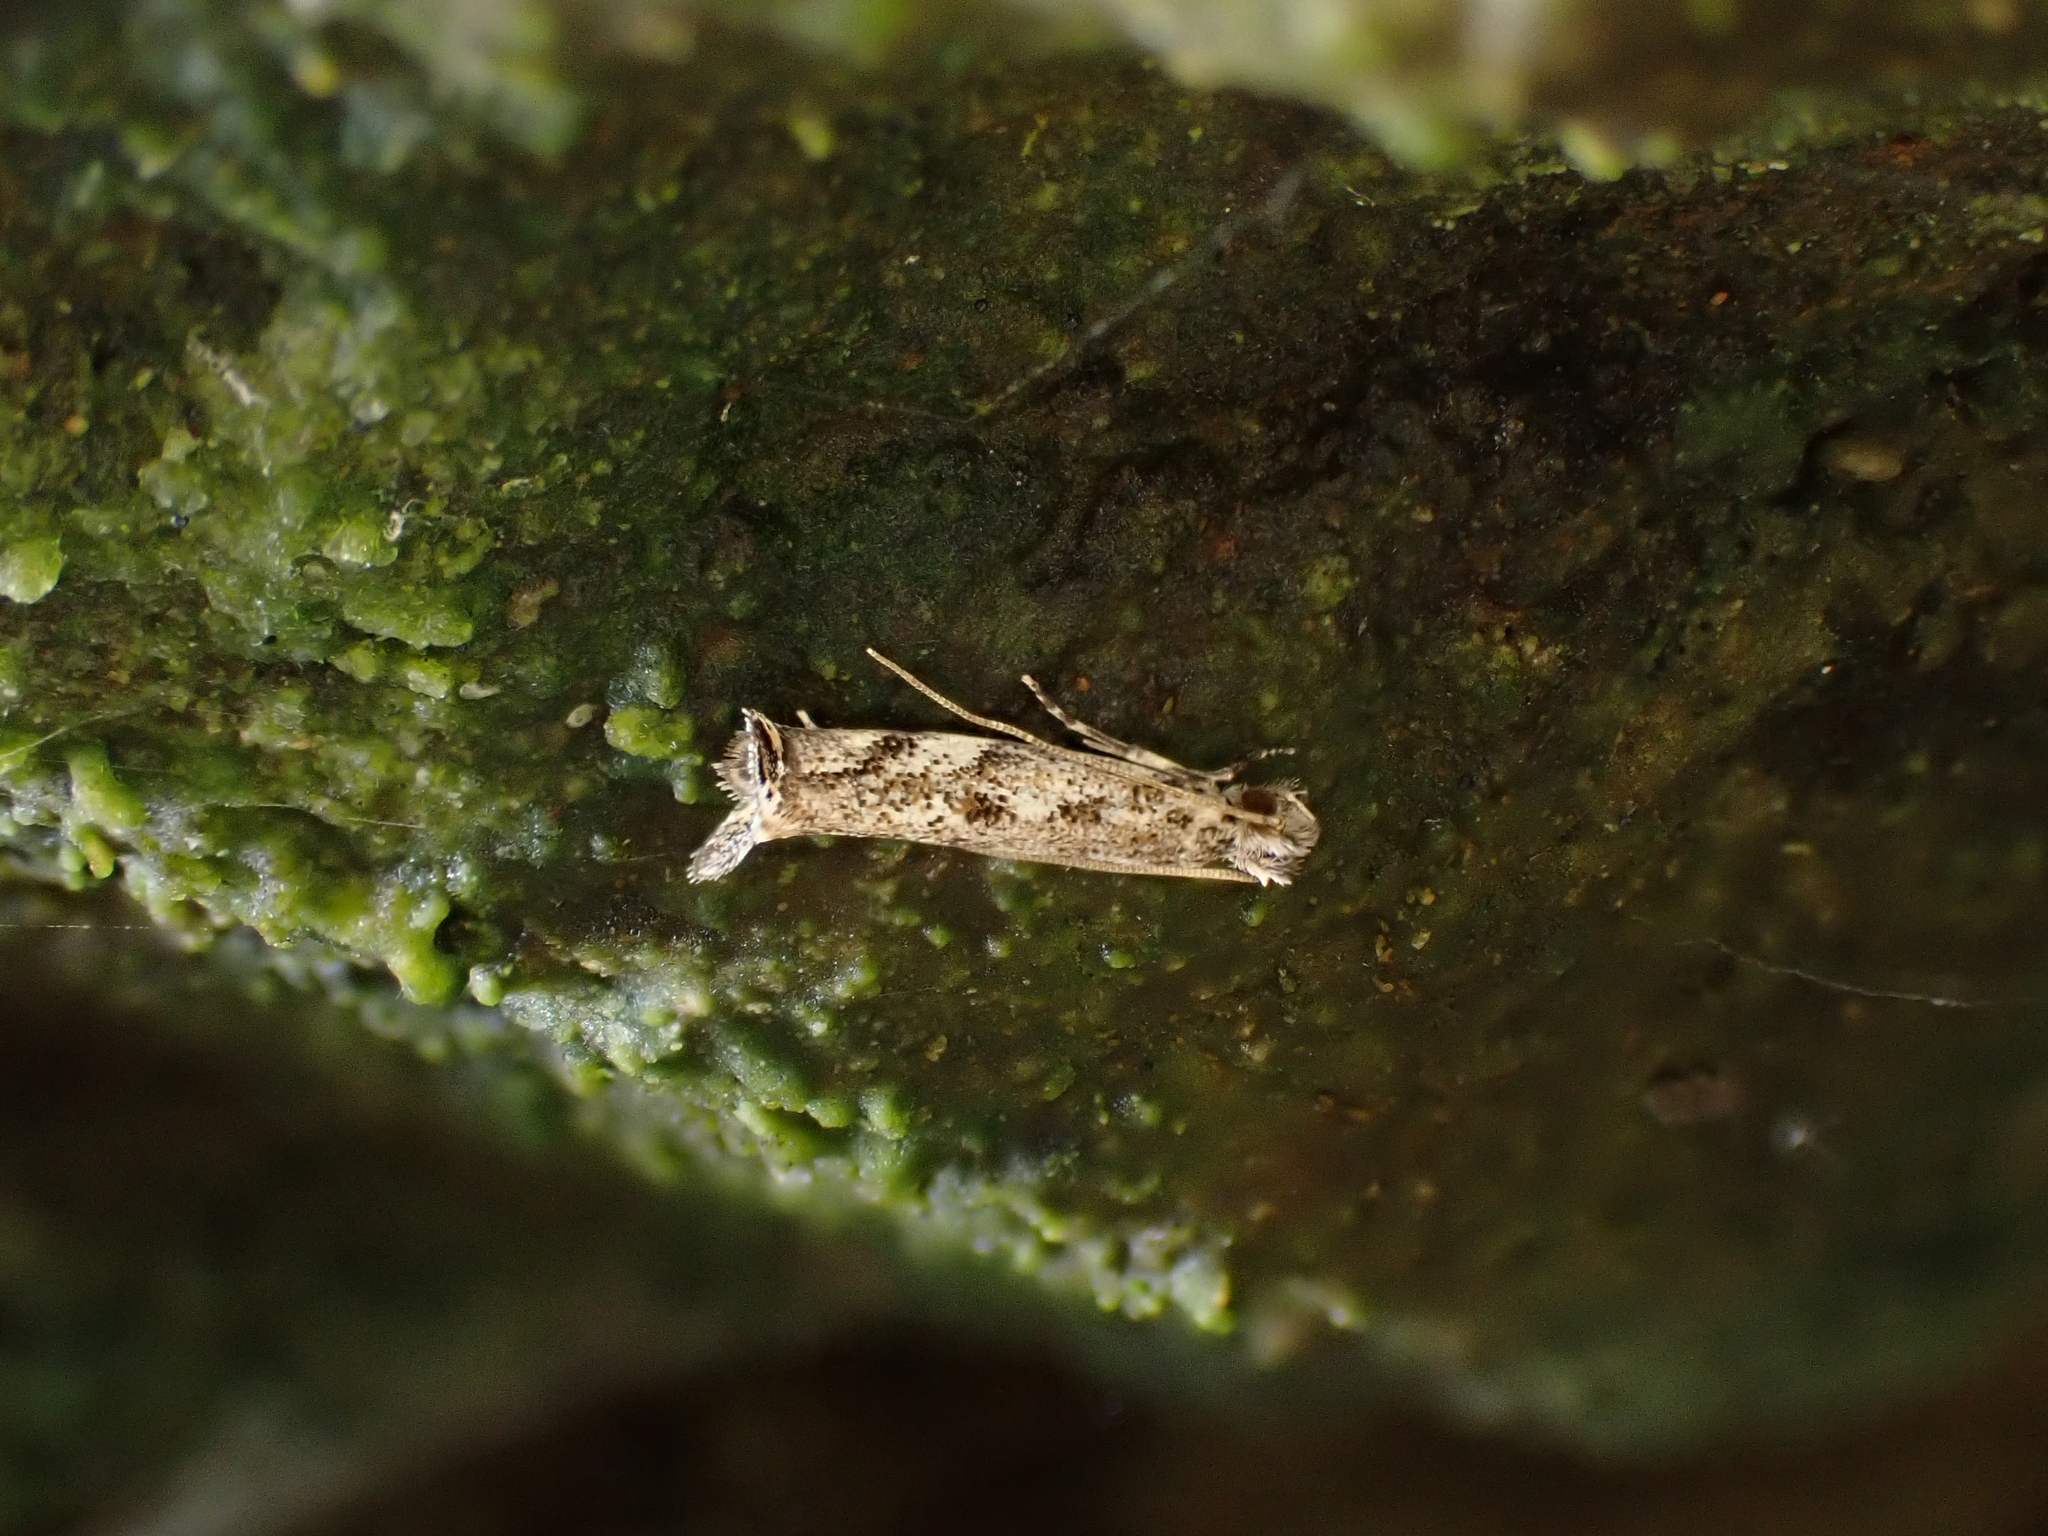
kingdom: Animalia
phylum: Arthropoda
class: Insecta
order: Lepidoptera
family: Tineidae
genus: Erechthias
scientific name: Erechthias acrodina
